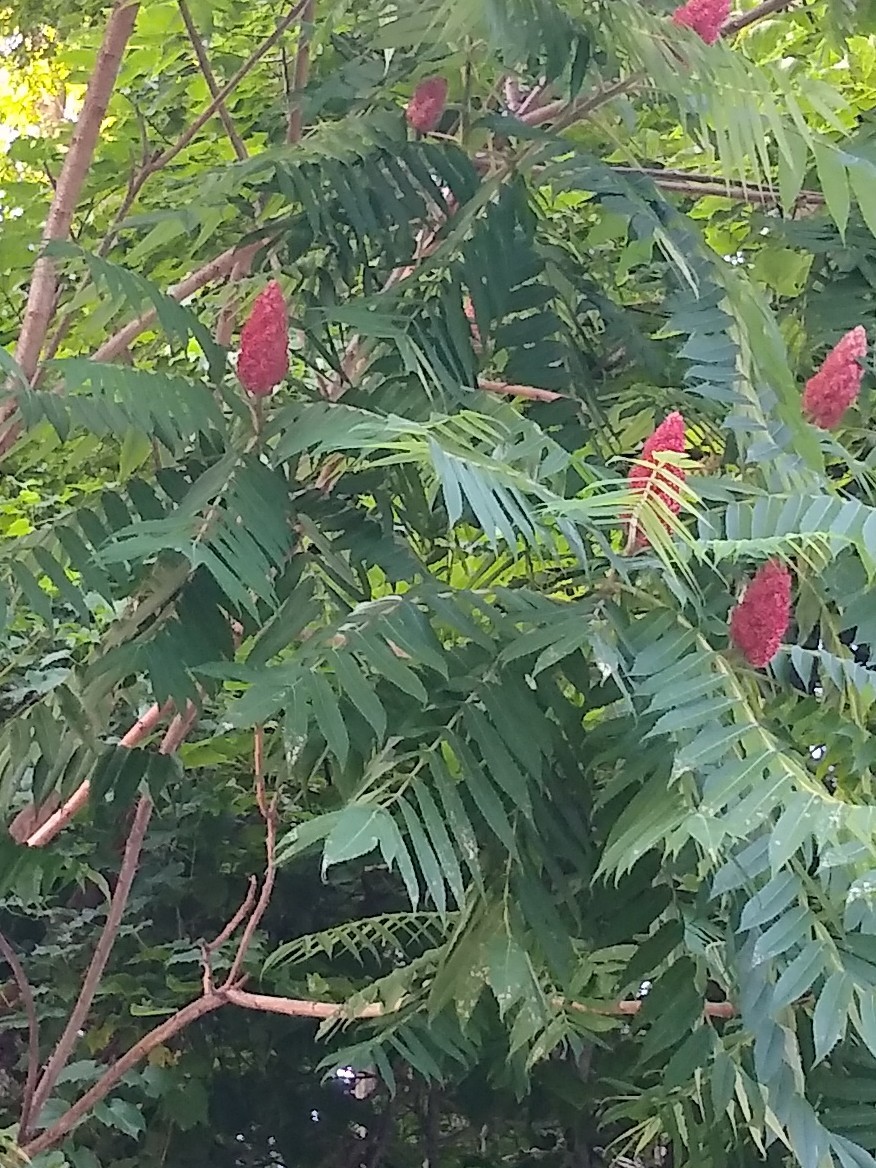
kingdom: Plantae
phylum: Tracheophyta
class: Magnoliopsida
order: Sapindales
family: Anacardiaceae
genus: Rhus
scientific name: Rhus typhina
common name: Staghorn sumac
